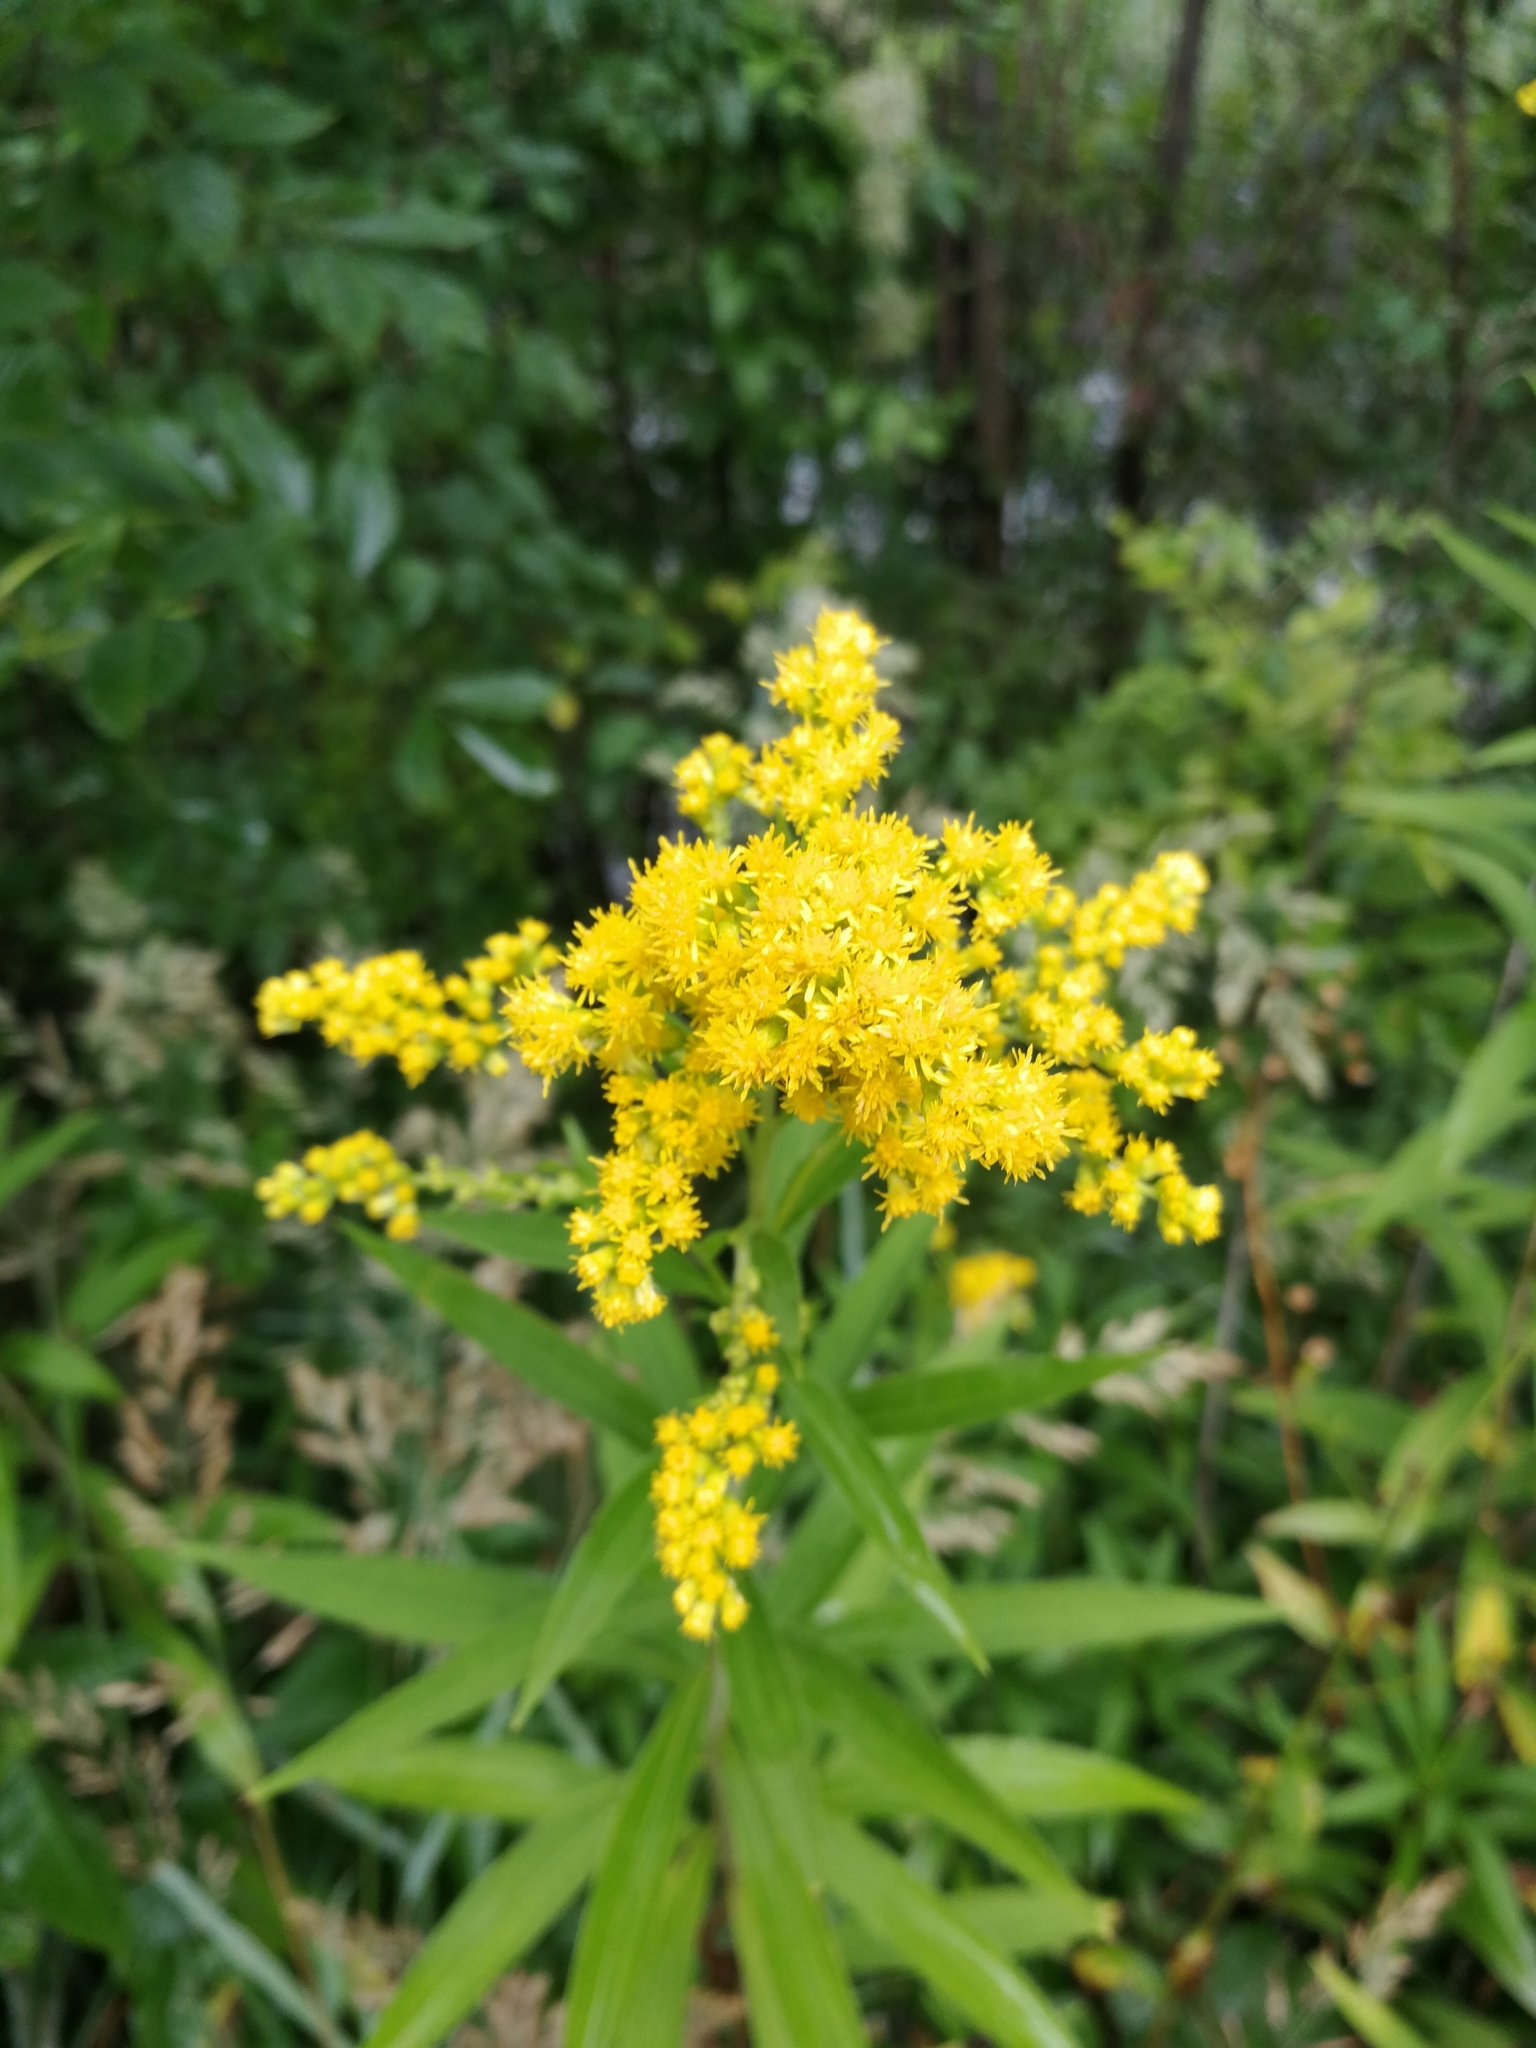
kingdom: Plantae
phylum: Tracheophyta
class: Magnoliopsida
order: Asterales
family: Asteraceae
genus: Solidago
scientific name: Solidago gigantea
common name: Giant goldenrod
